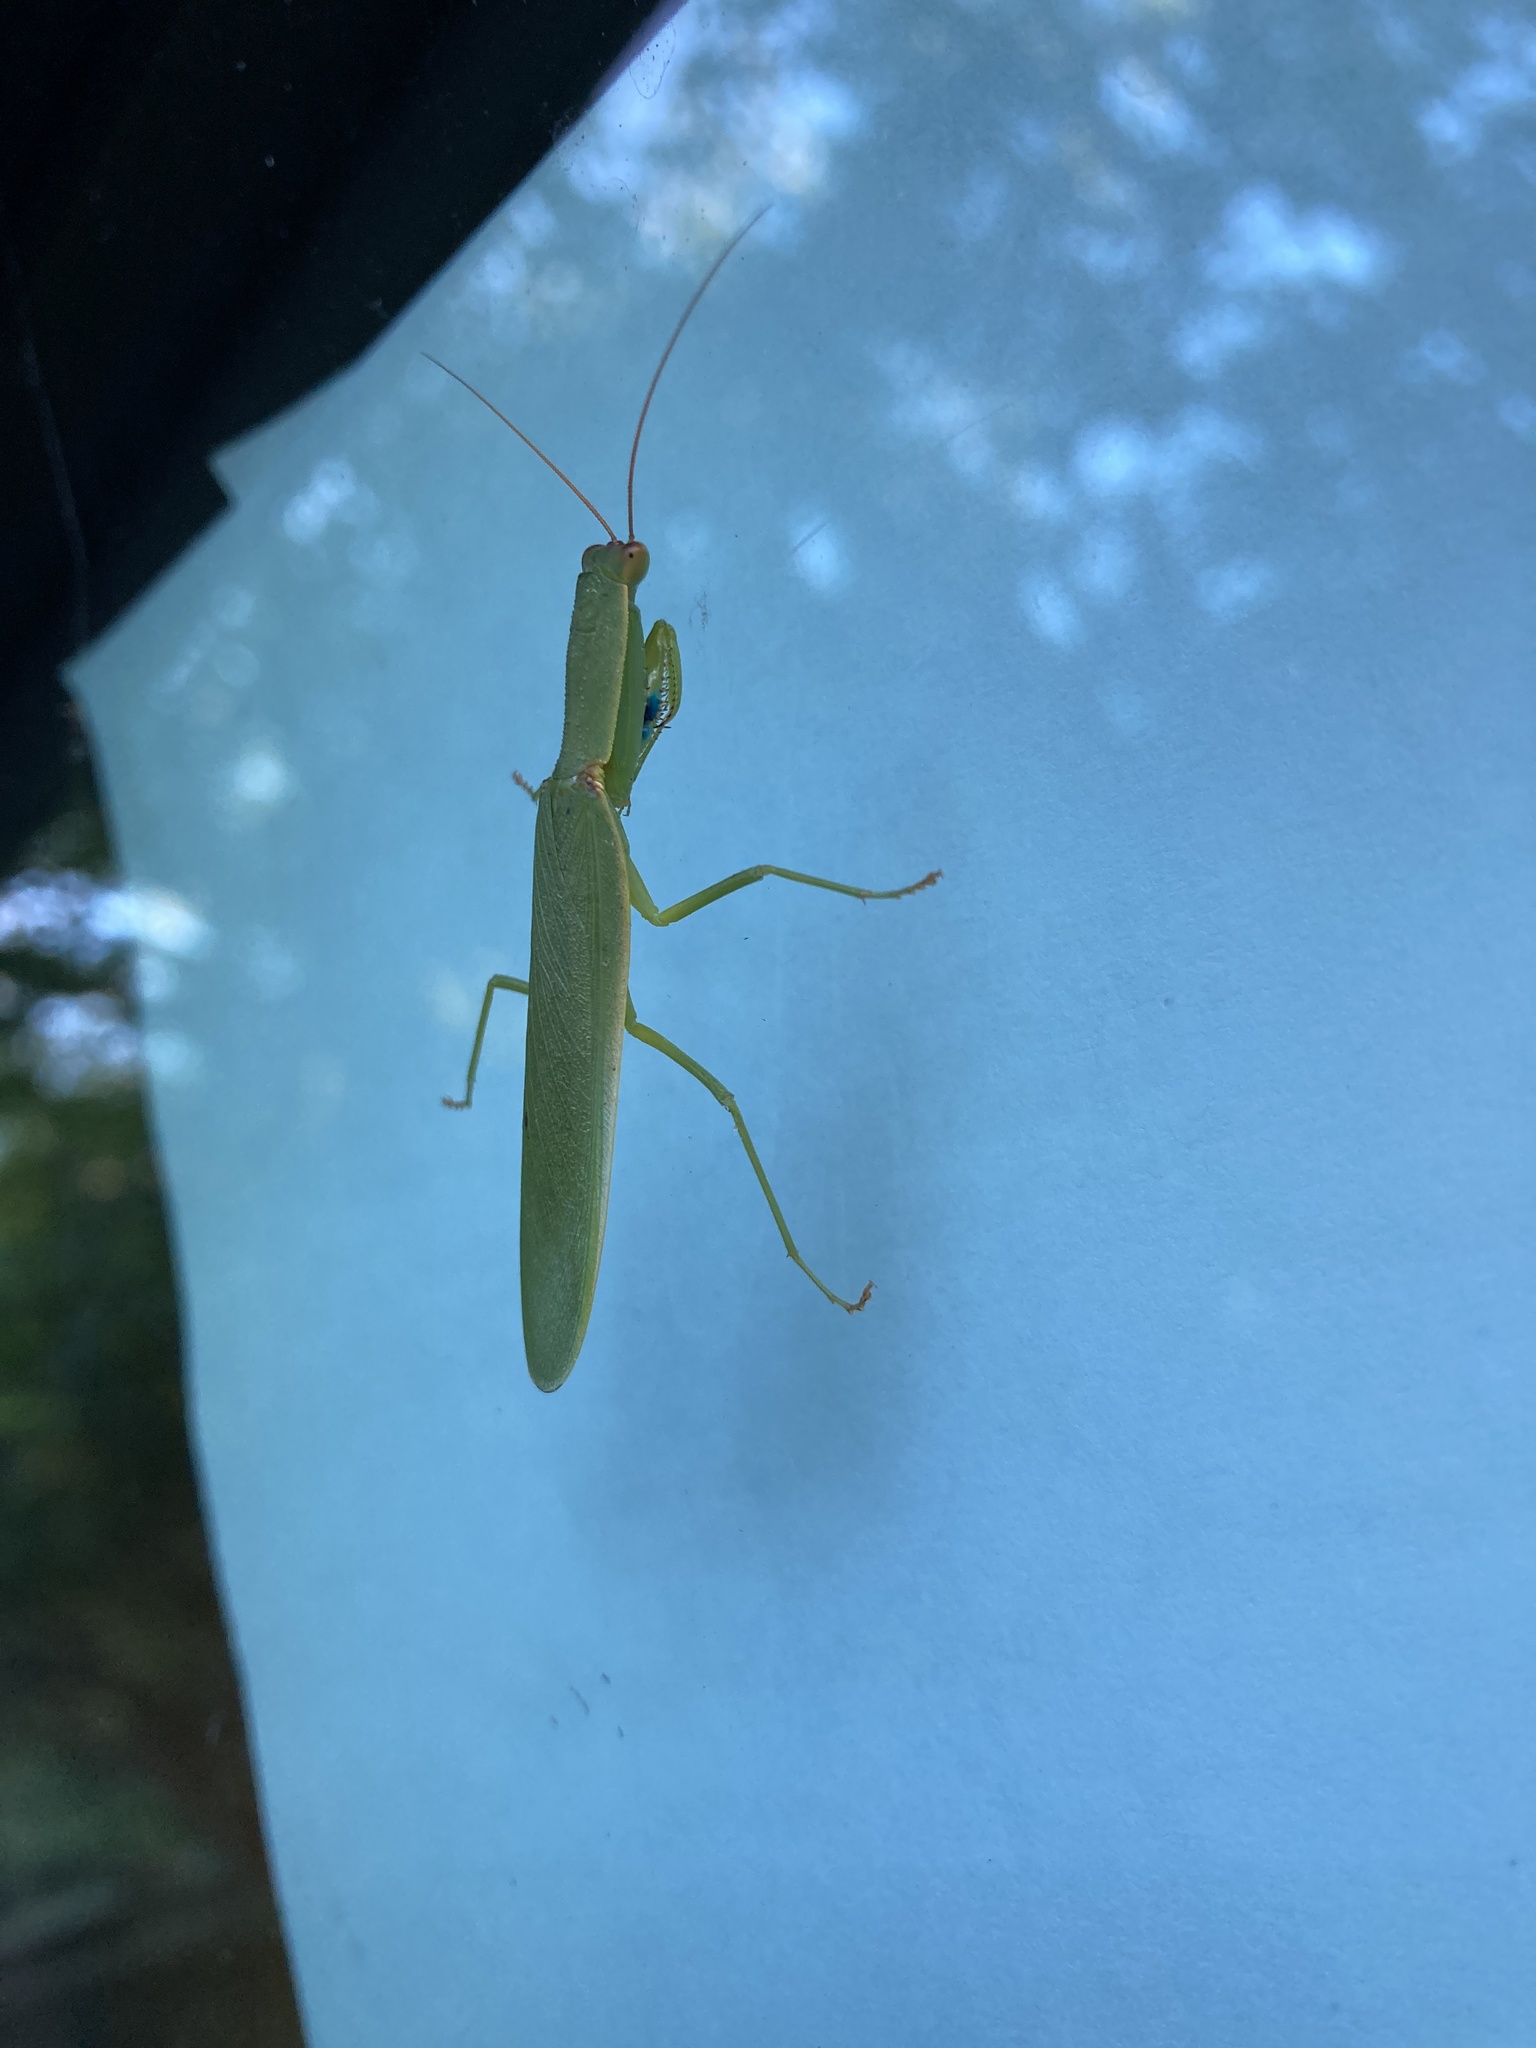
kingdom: Animalia
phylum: Arthropoda
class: Insecta
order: Mantodea
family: Mantidae
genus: Orthodera
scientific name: Orthodera novaezealandiae
